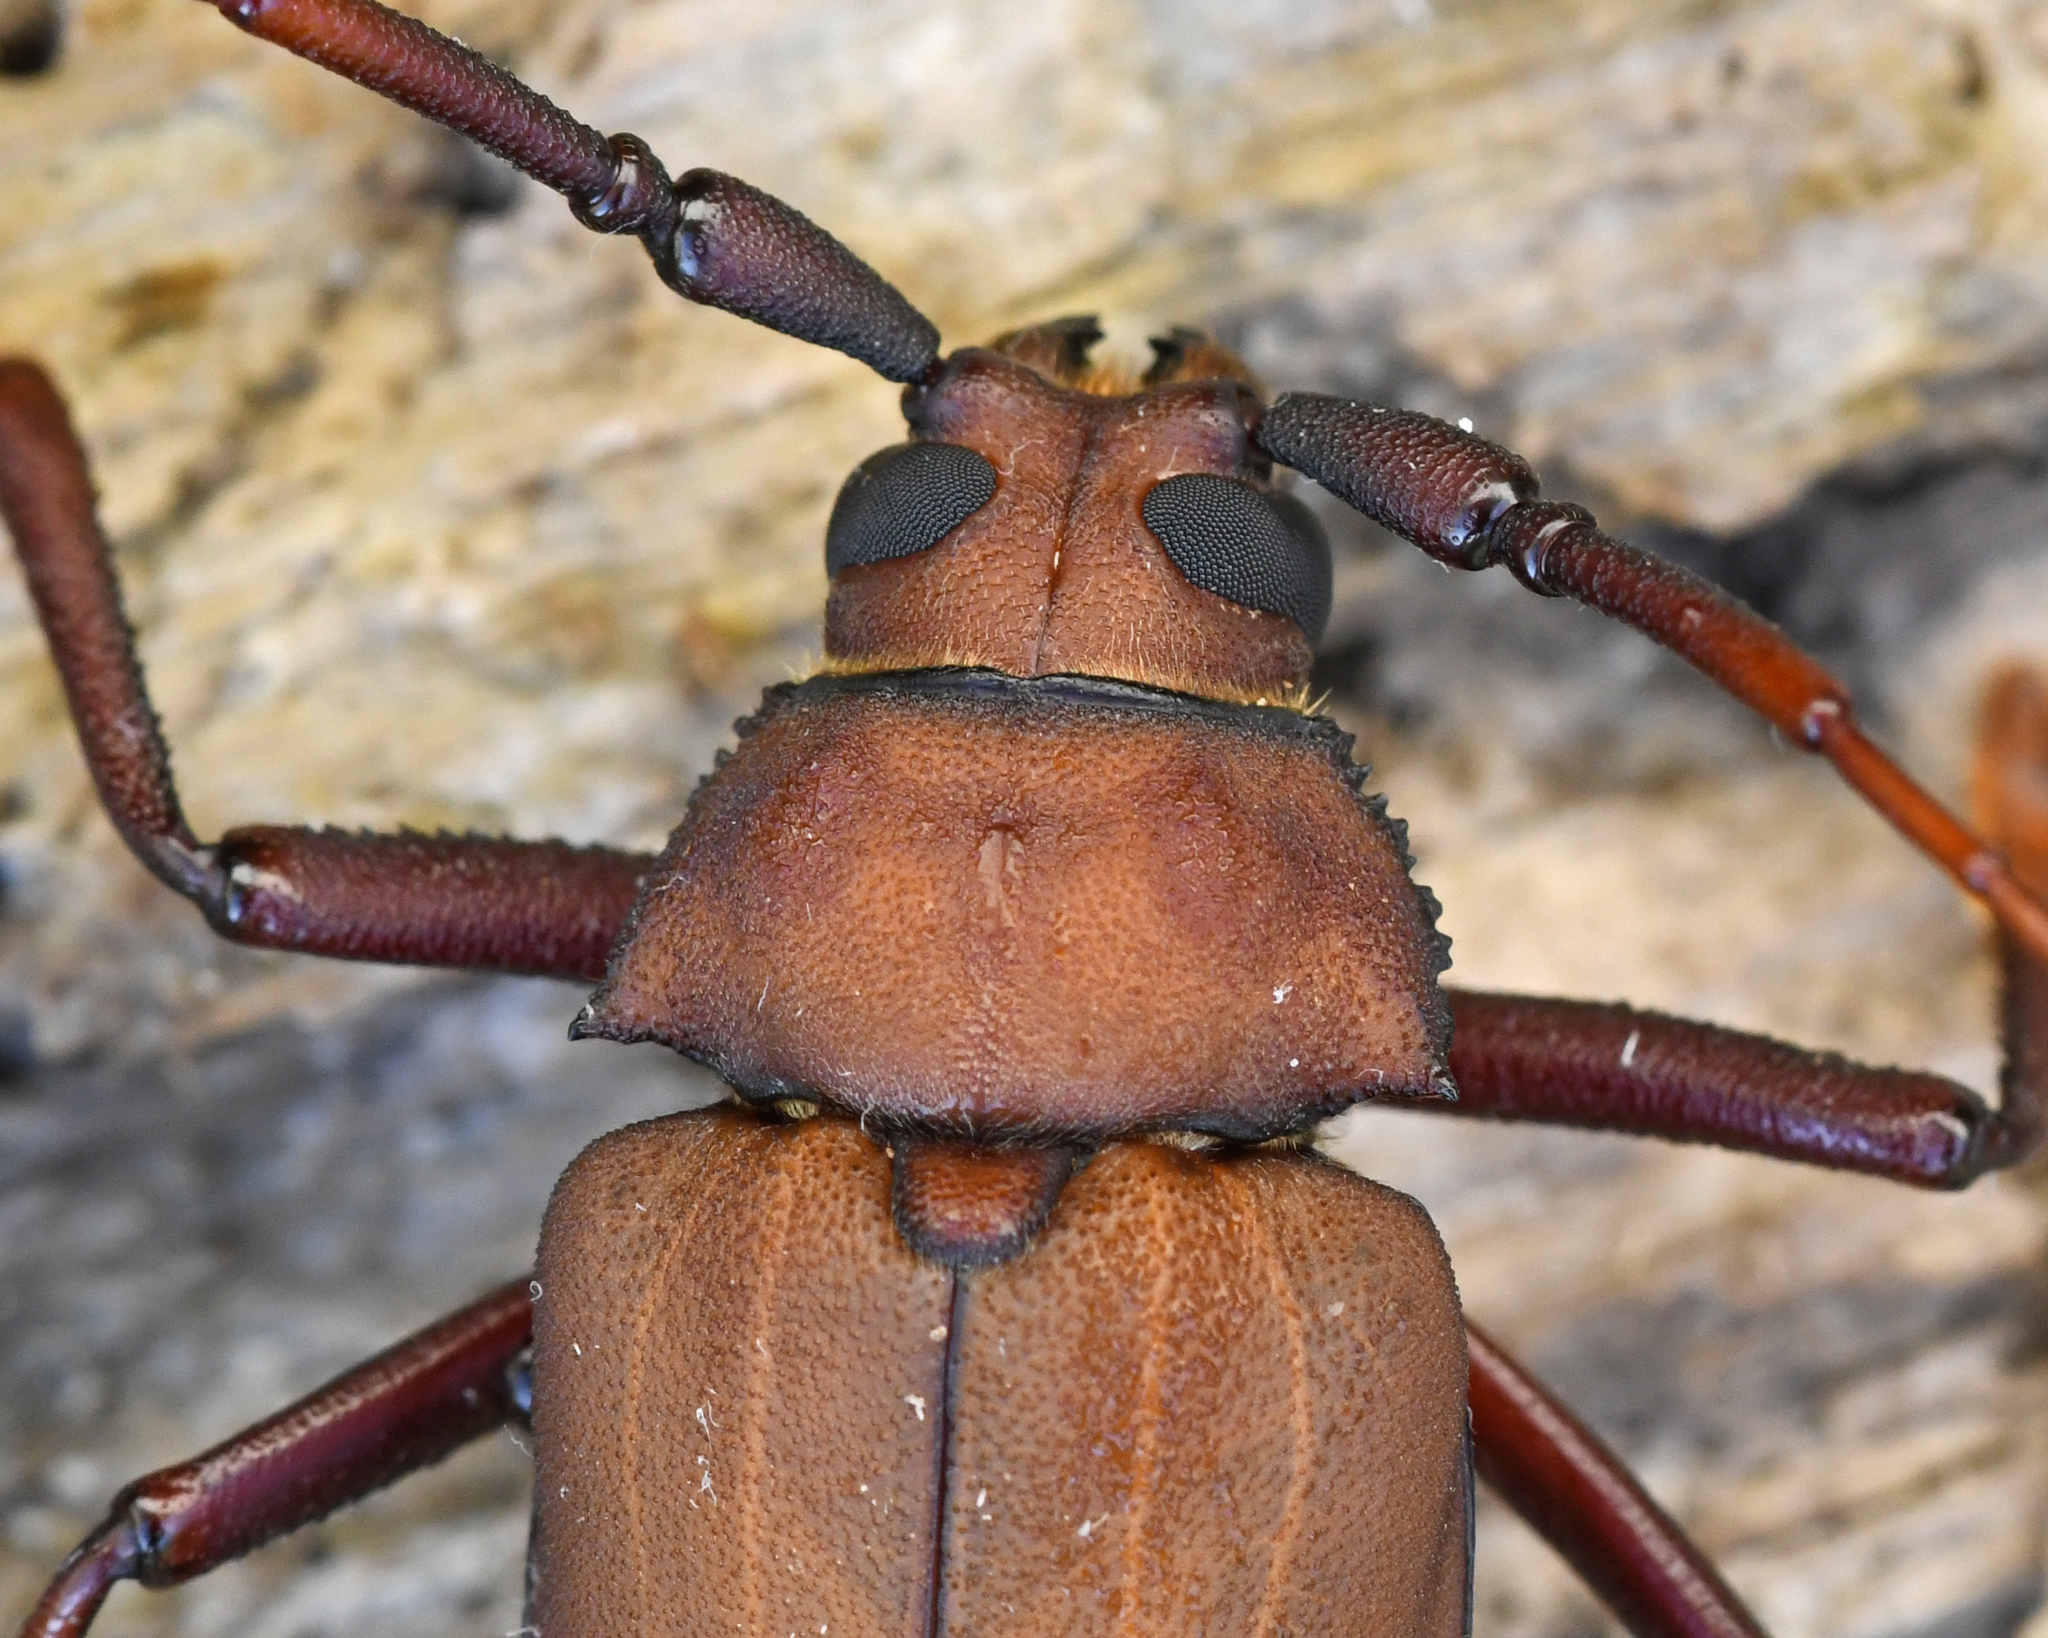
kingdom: Animalia
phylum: Arthropoda
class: Insecta
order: Coleoptera
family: Cerambycidae
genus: Strongylaspis
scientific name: Strongylaspis corticaria
